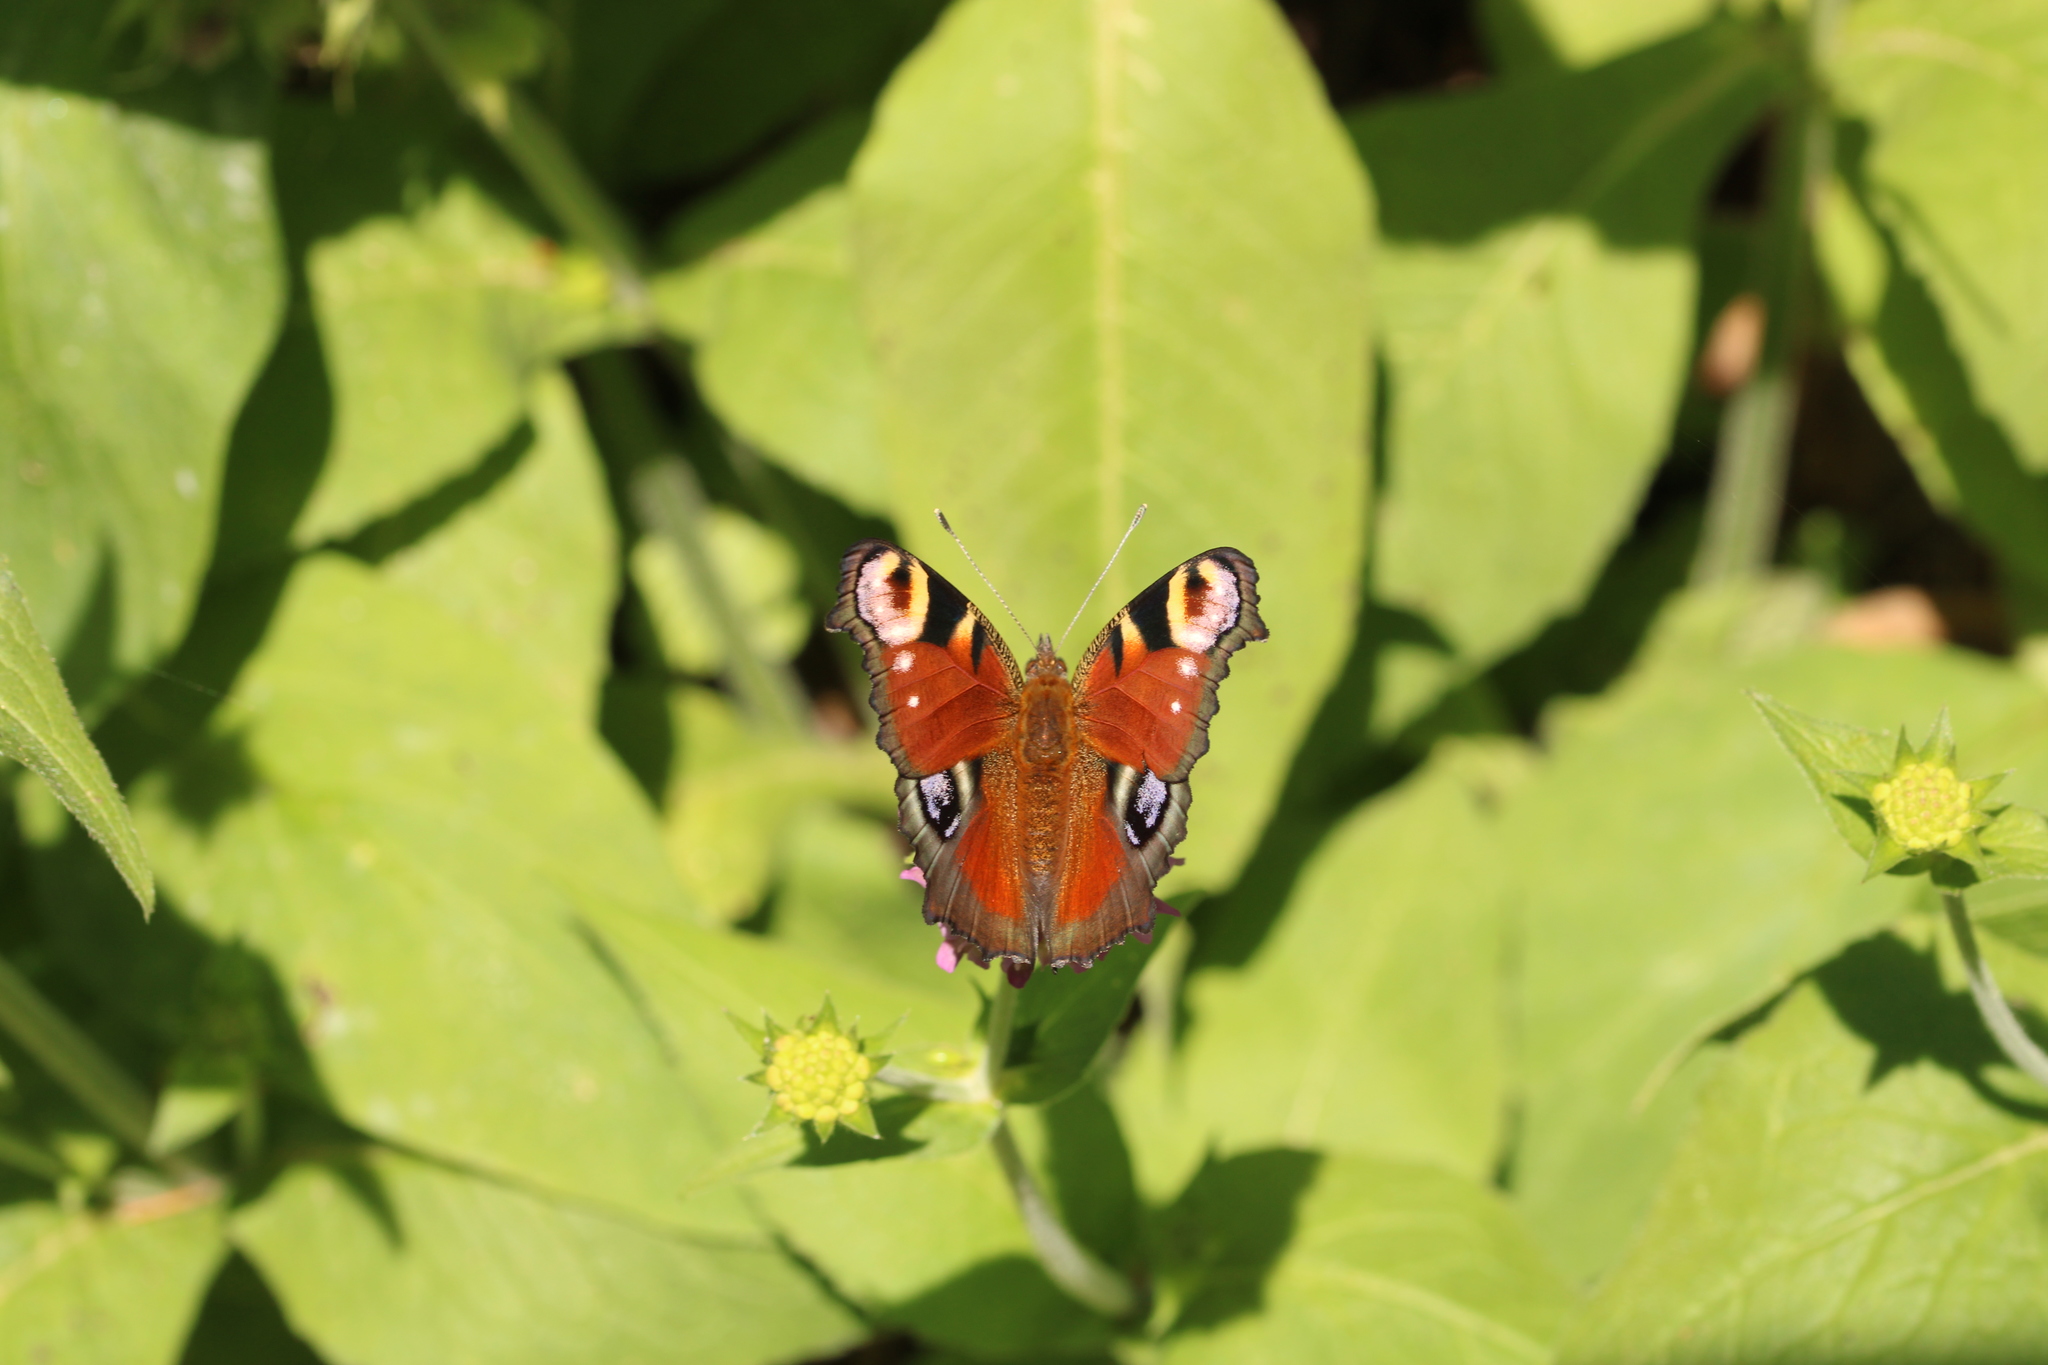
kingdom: Animalia
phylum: Arthropoda
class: Insecta
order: Lepidoptera
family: Nymphalidae
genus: Aglais
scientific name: Aglais io
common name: Peacock
